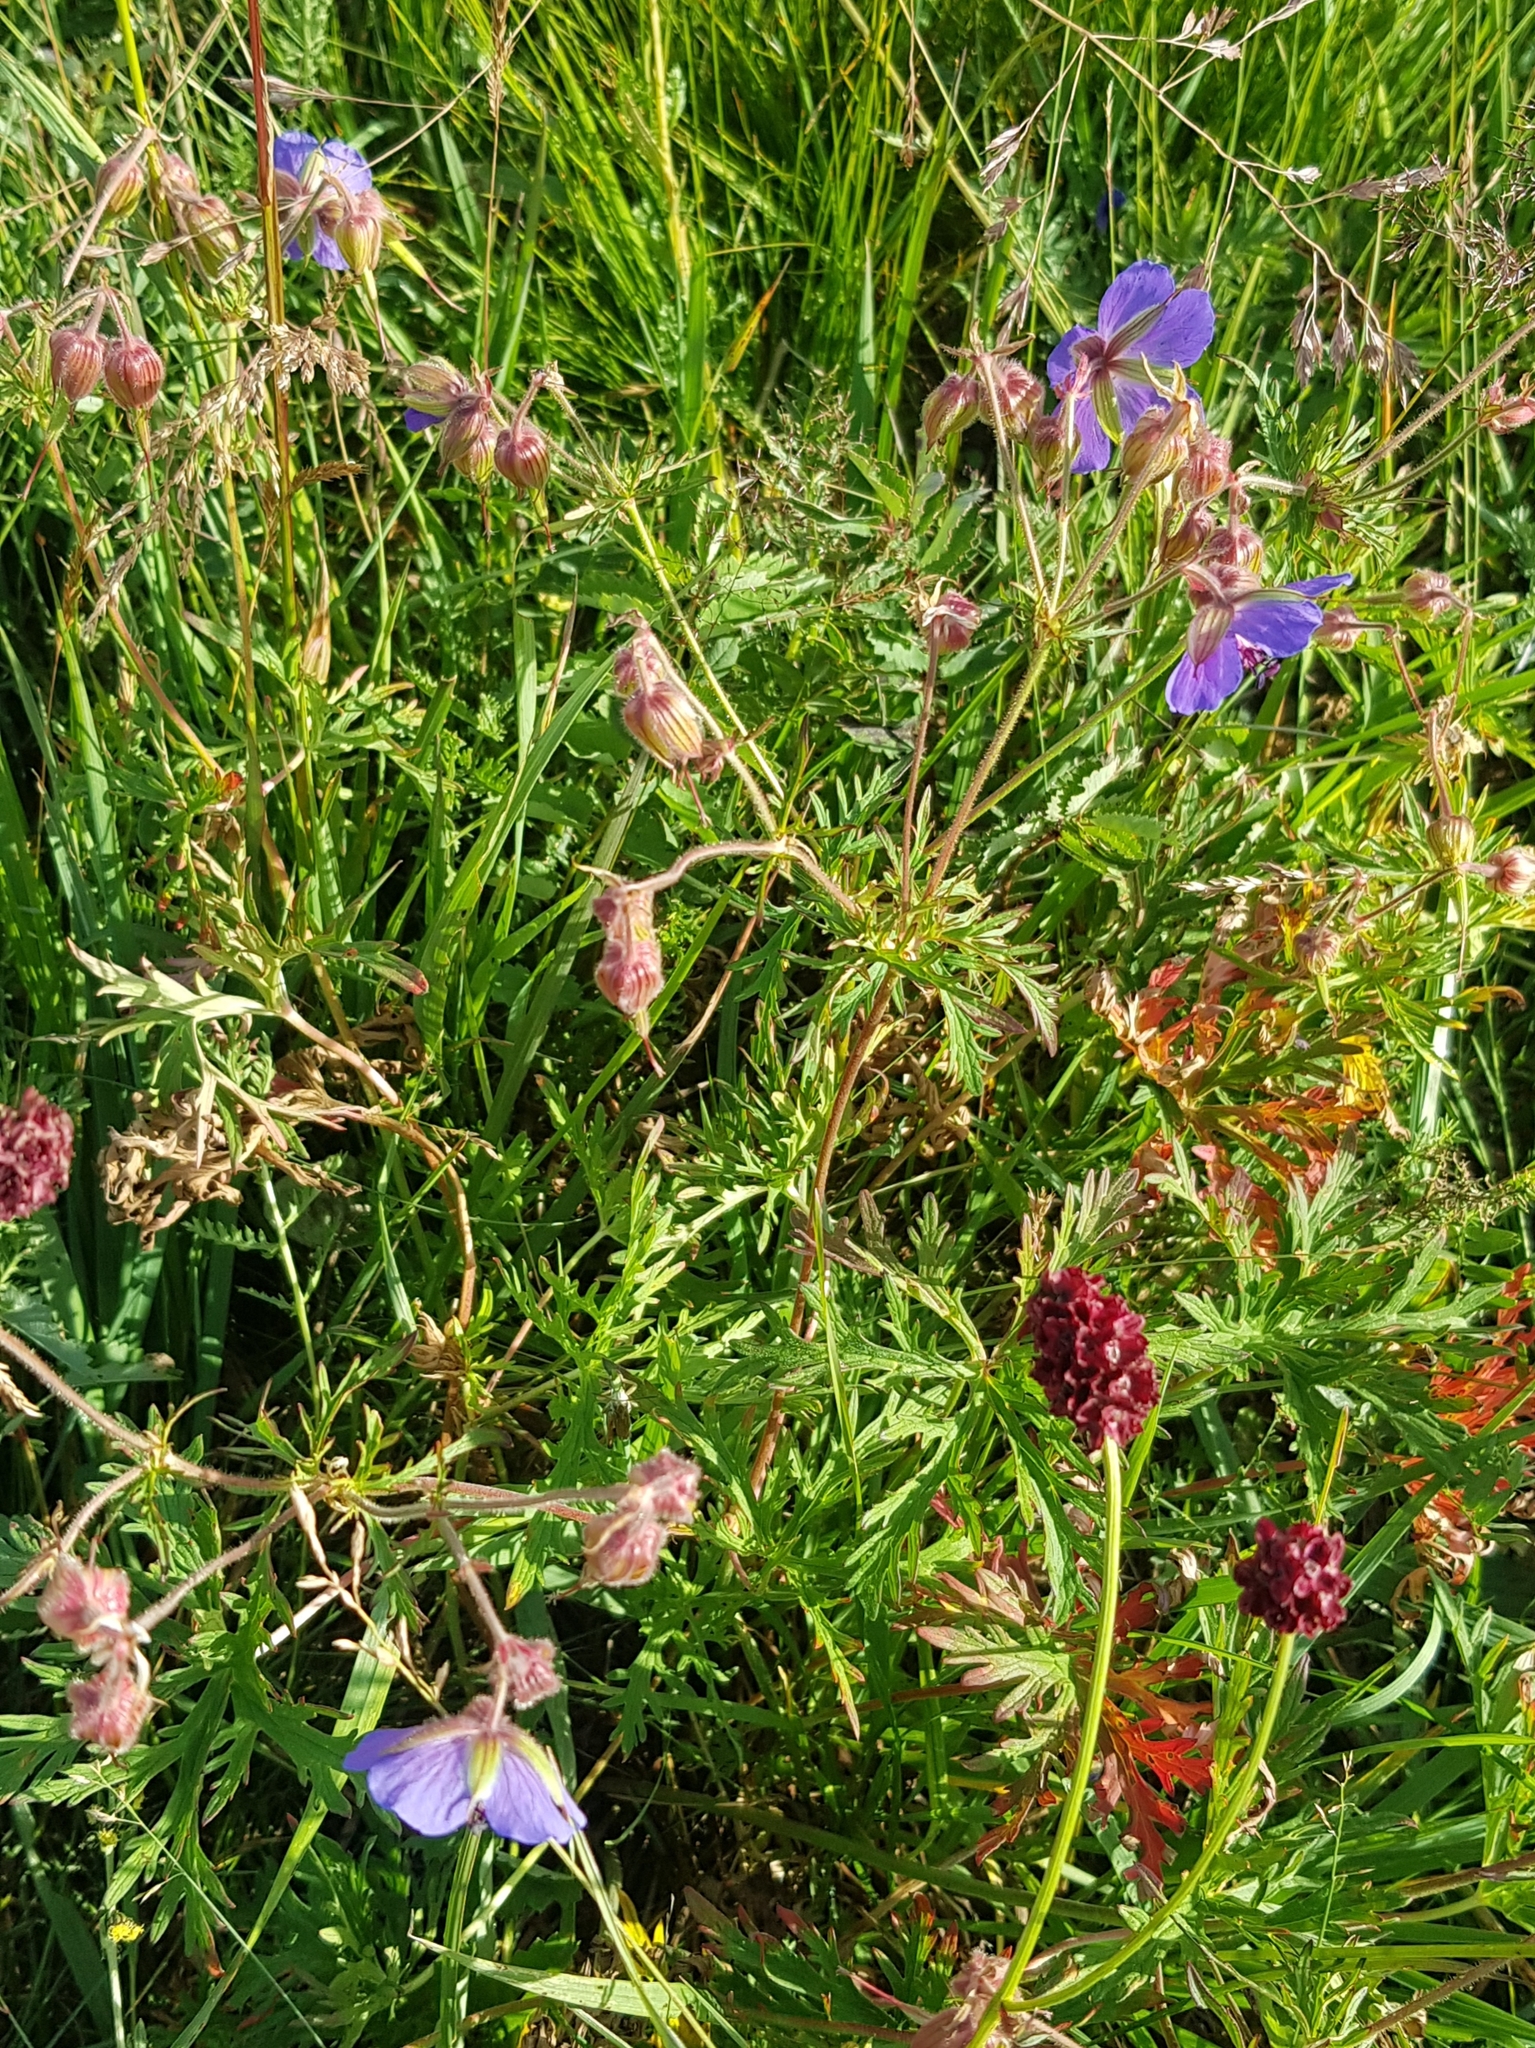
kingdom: Plantae
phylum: Tracheophyta
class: Magnoliopsida
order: Geraniales
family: Geraniaceae
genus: Geranium
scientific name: Geranium pratense
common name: Meadow crane's-bill
